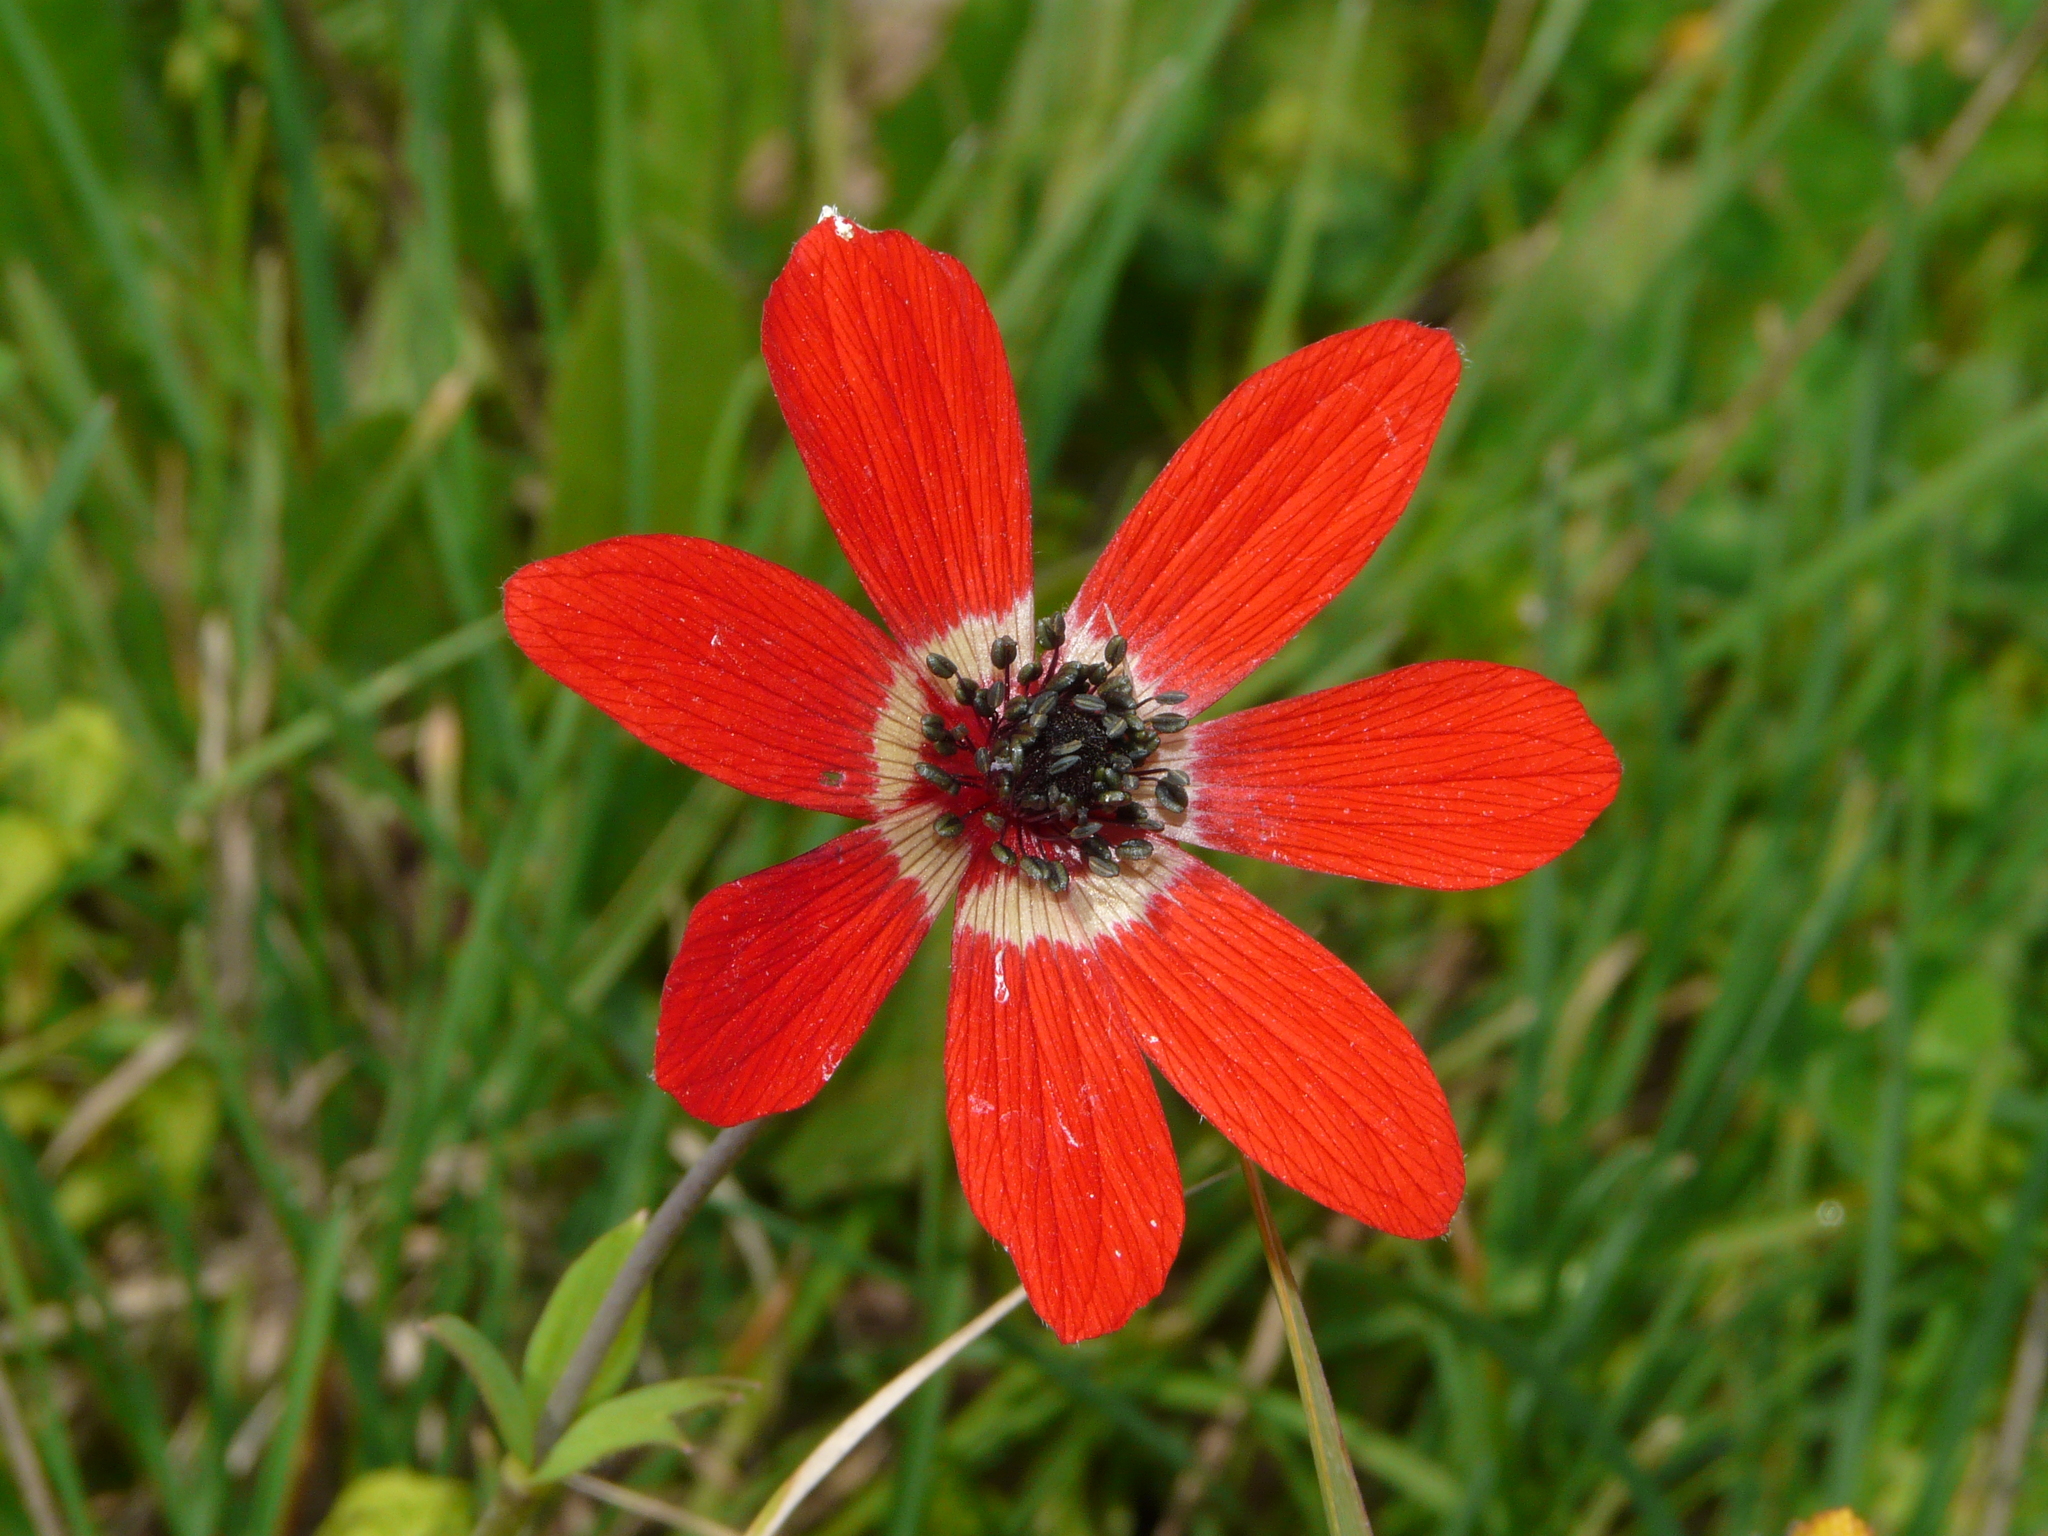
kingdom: Plantae
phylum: Tracheophyta
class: Magnoliopsida
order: Ranunculales
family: Ranunculaceae
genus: Anemone
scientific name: Anemone pavonina
